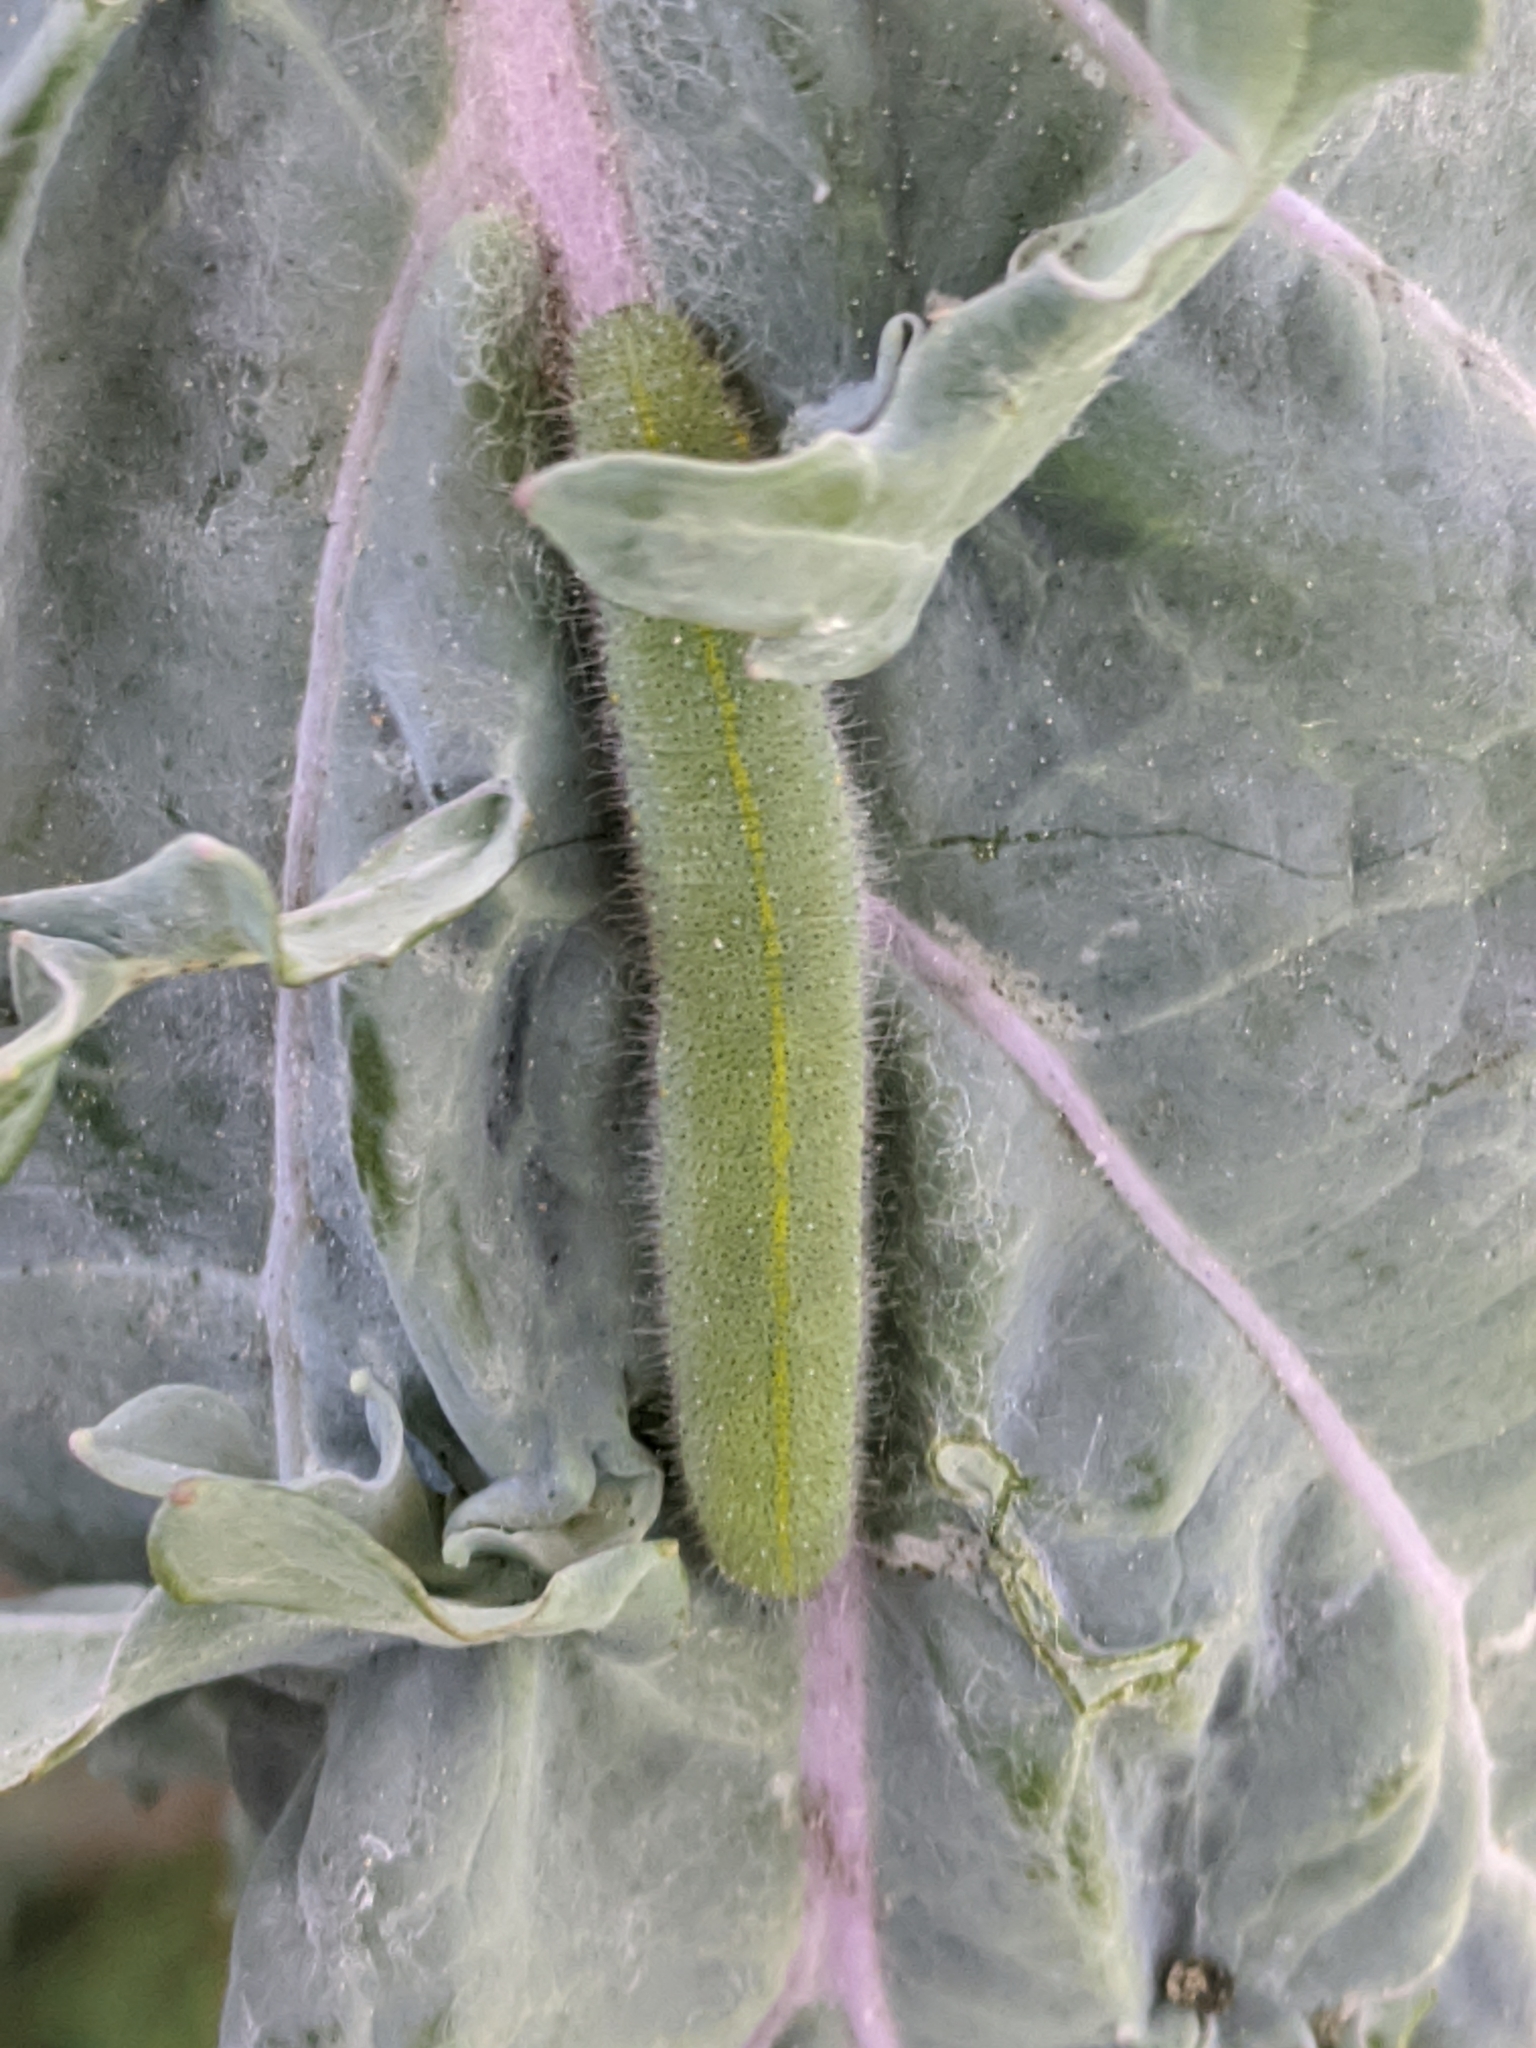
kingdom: Animalia
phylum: Arthropoda
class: Insecta
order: Lepidoptera
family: Pieridae
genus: Pieris
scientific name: Pieris rapae
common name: Small white
